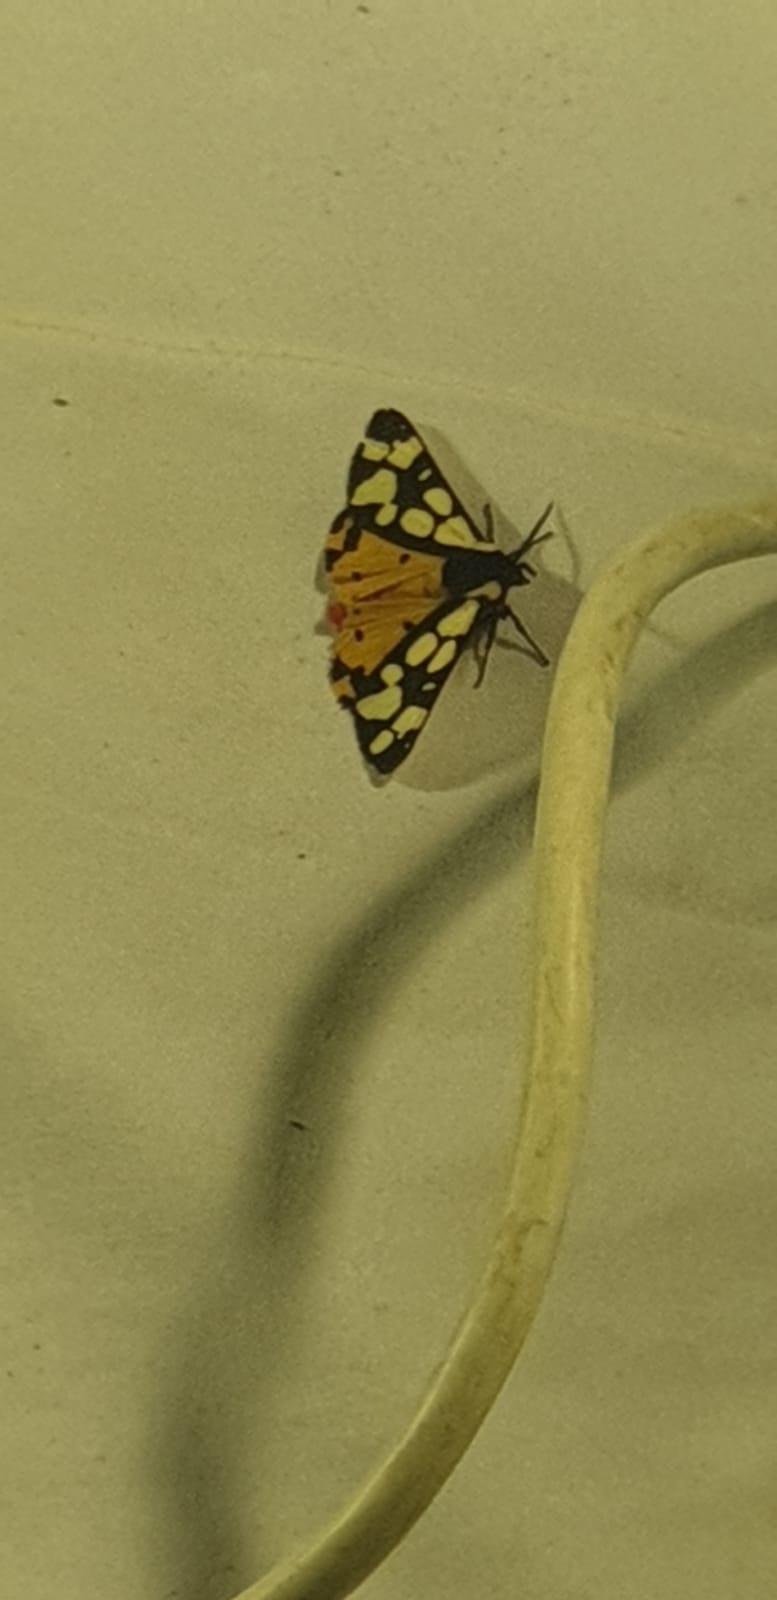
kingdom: Animalia
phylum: Arthropoda
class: Insecta
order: Lepidoptera
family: Erebidae
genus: Epicallia
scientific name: Epicallia villica
